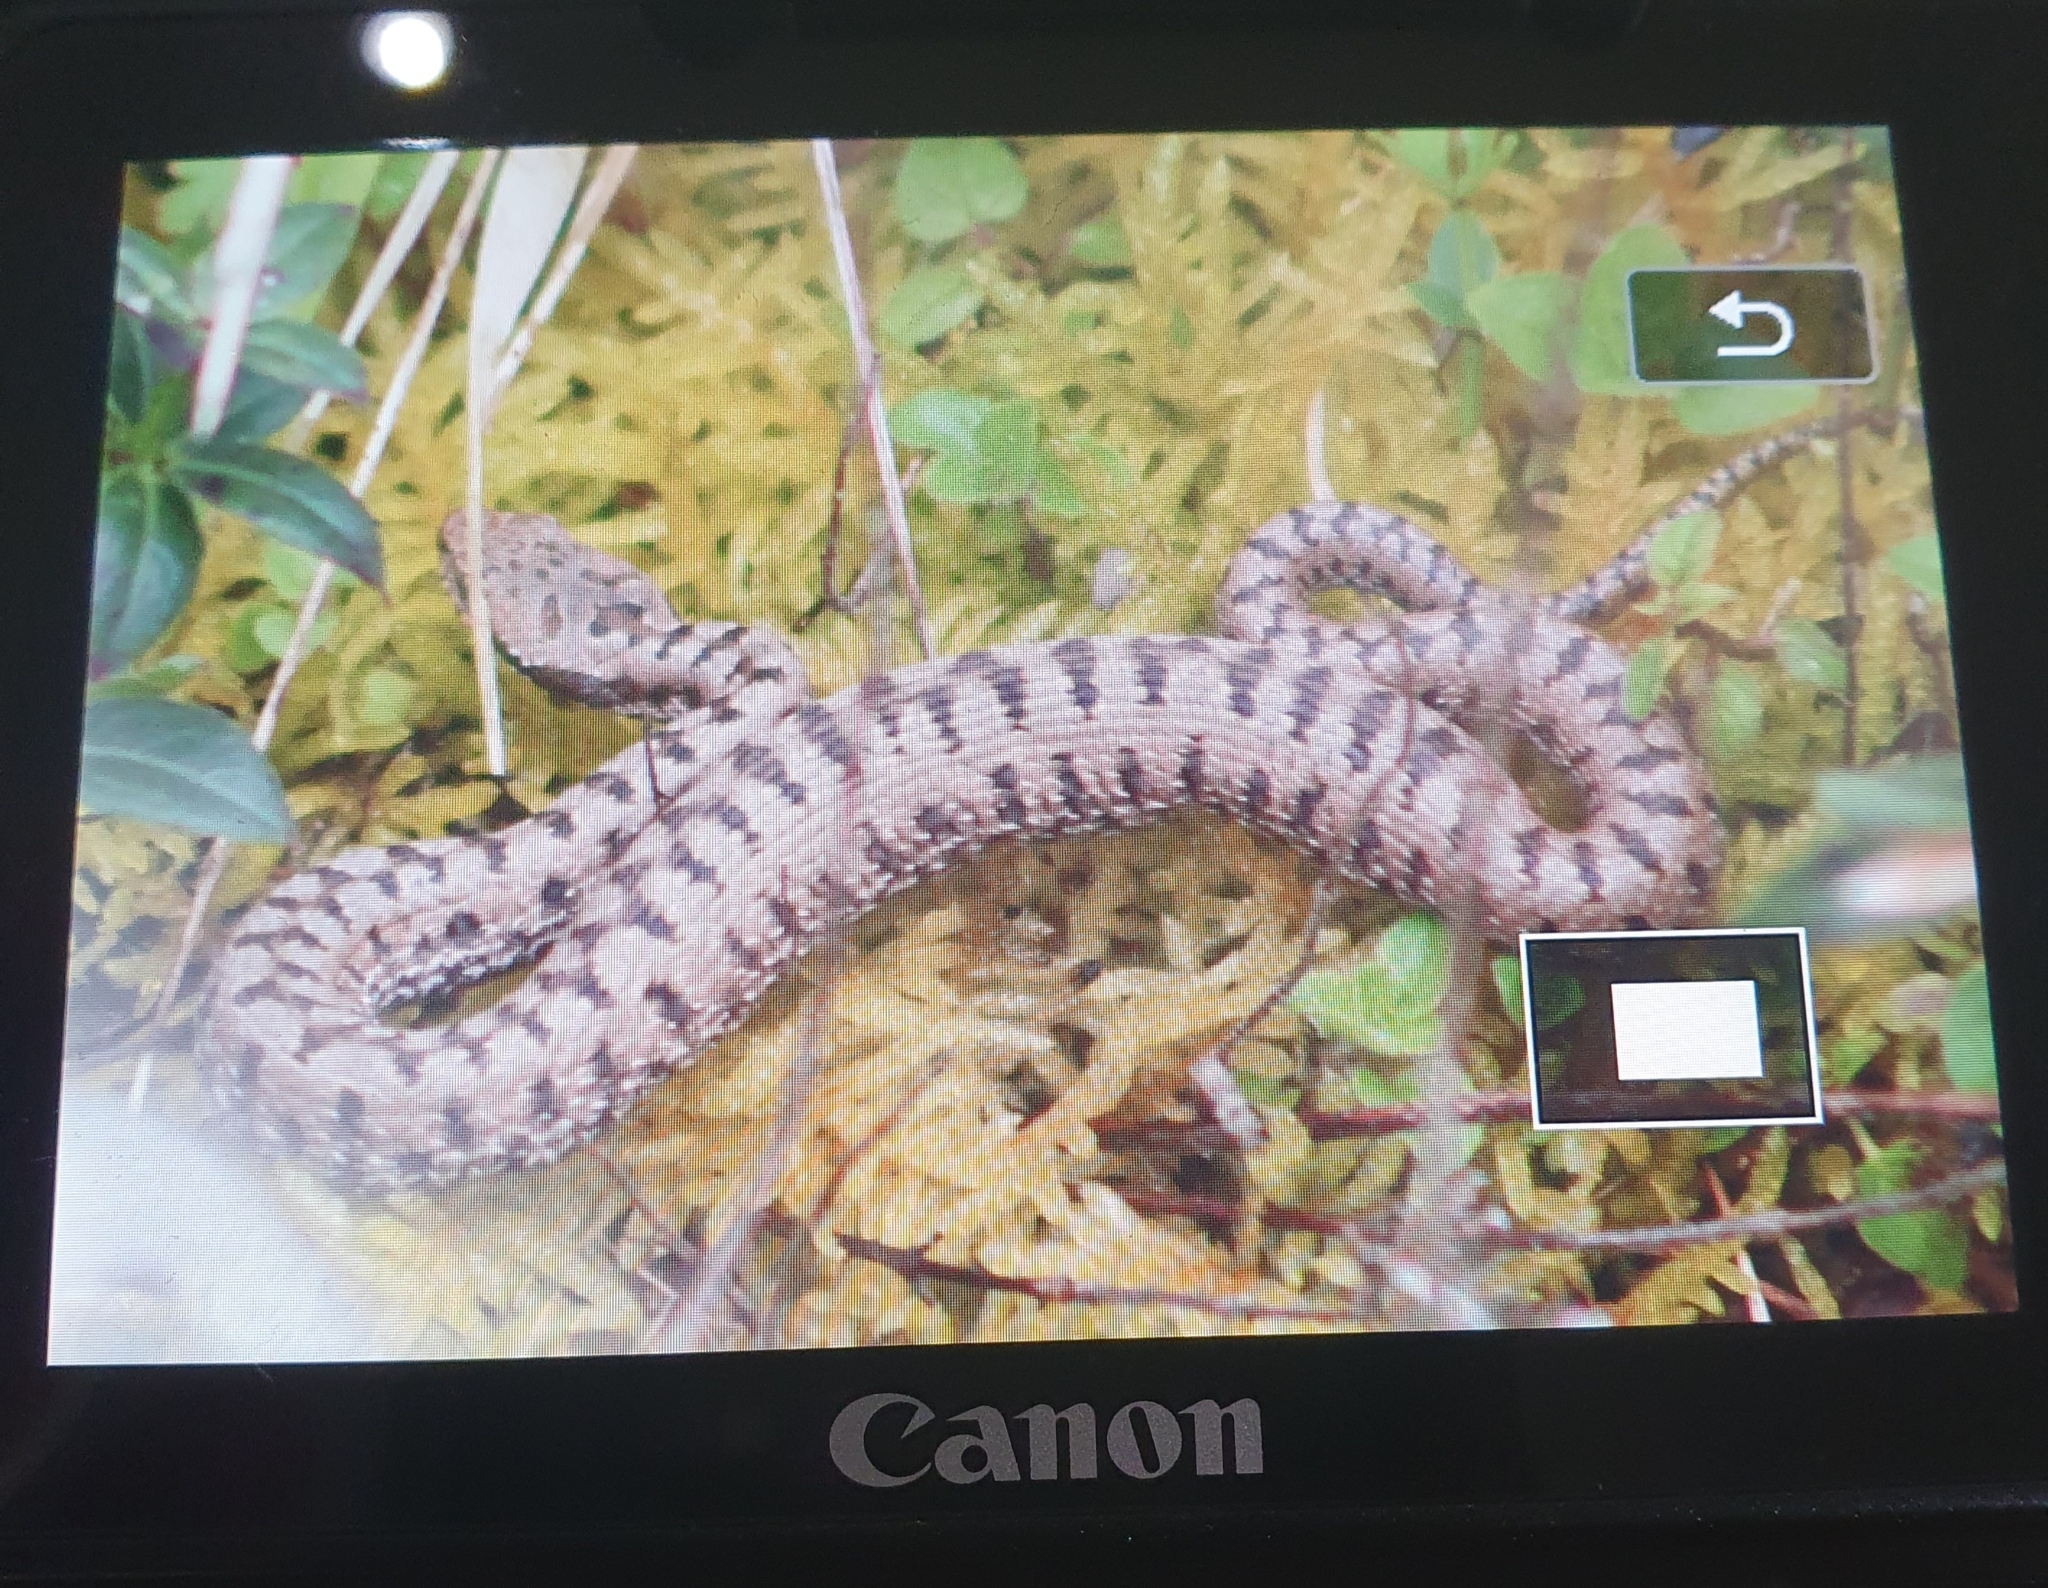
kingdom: Animalia
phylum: Chordata
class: Squamata
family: Viperidae
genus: Vipera
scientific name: Vipera aspis
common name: Asp viper
